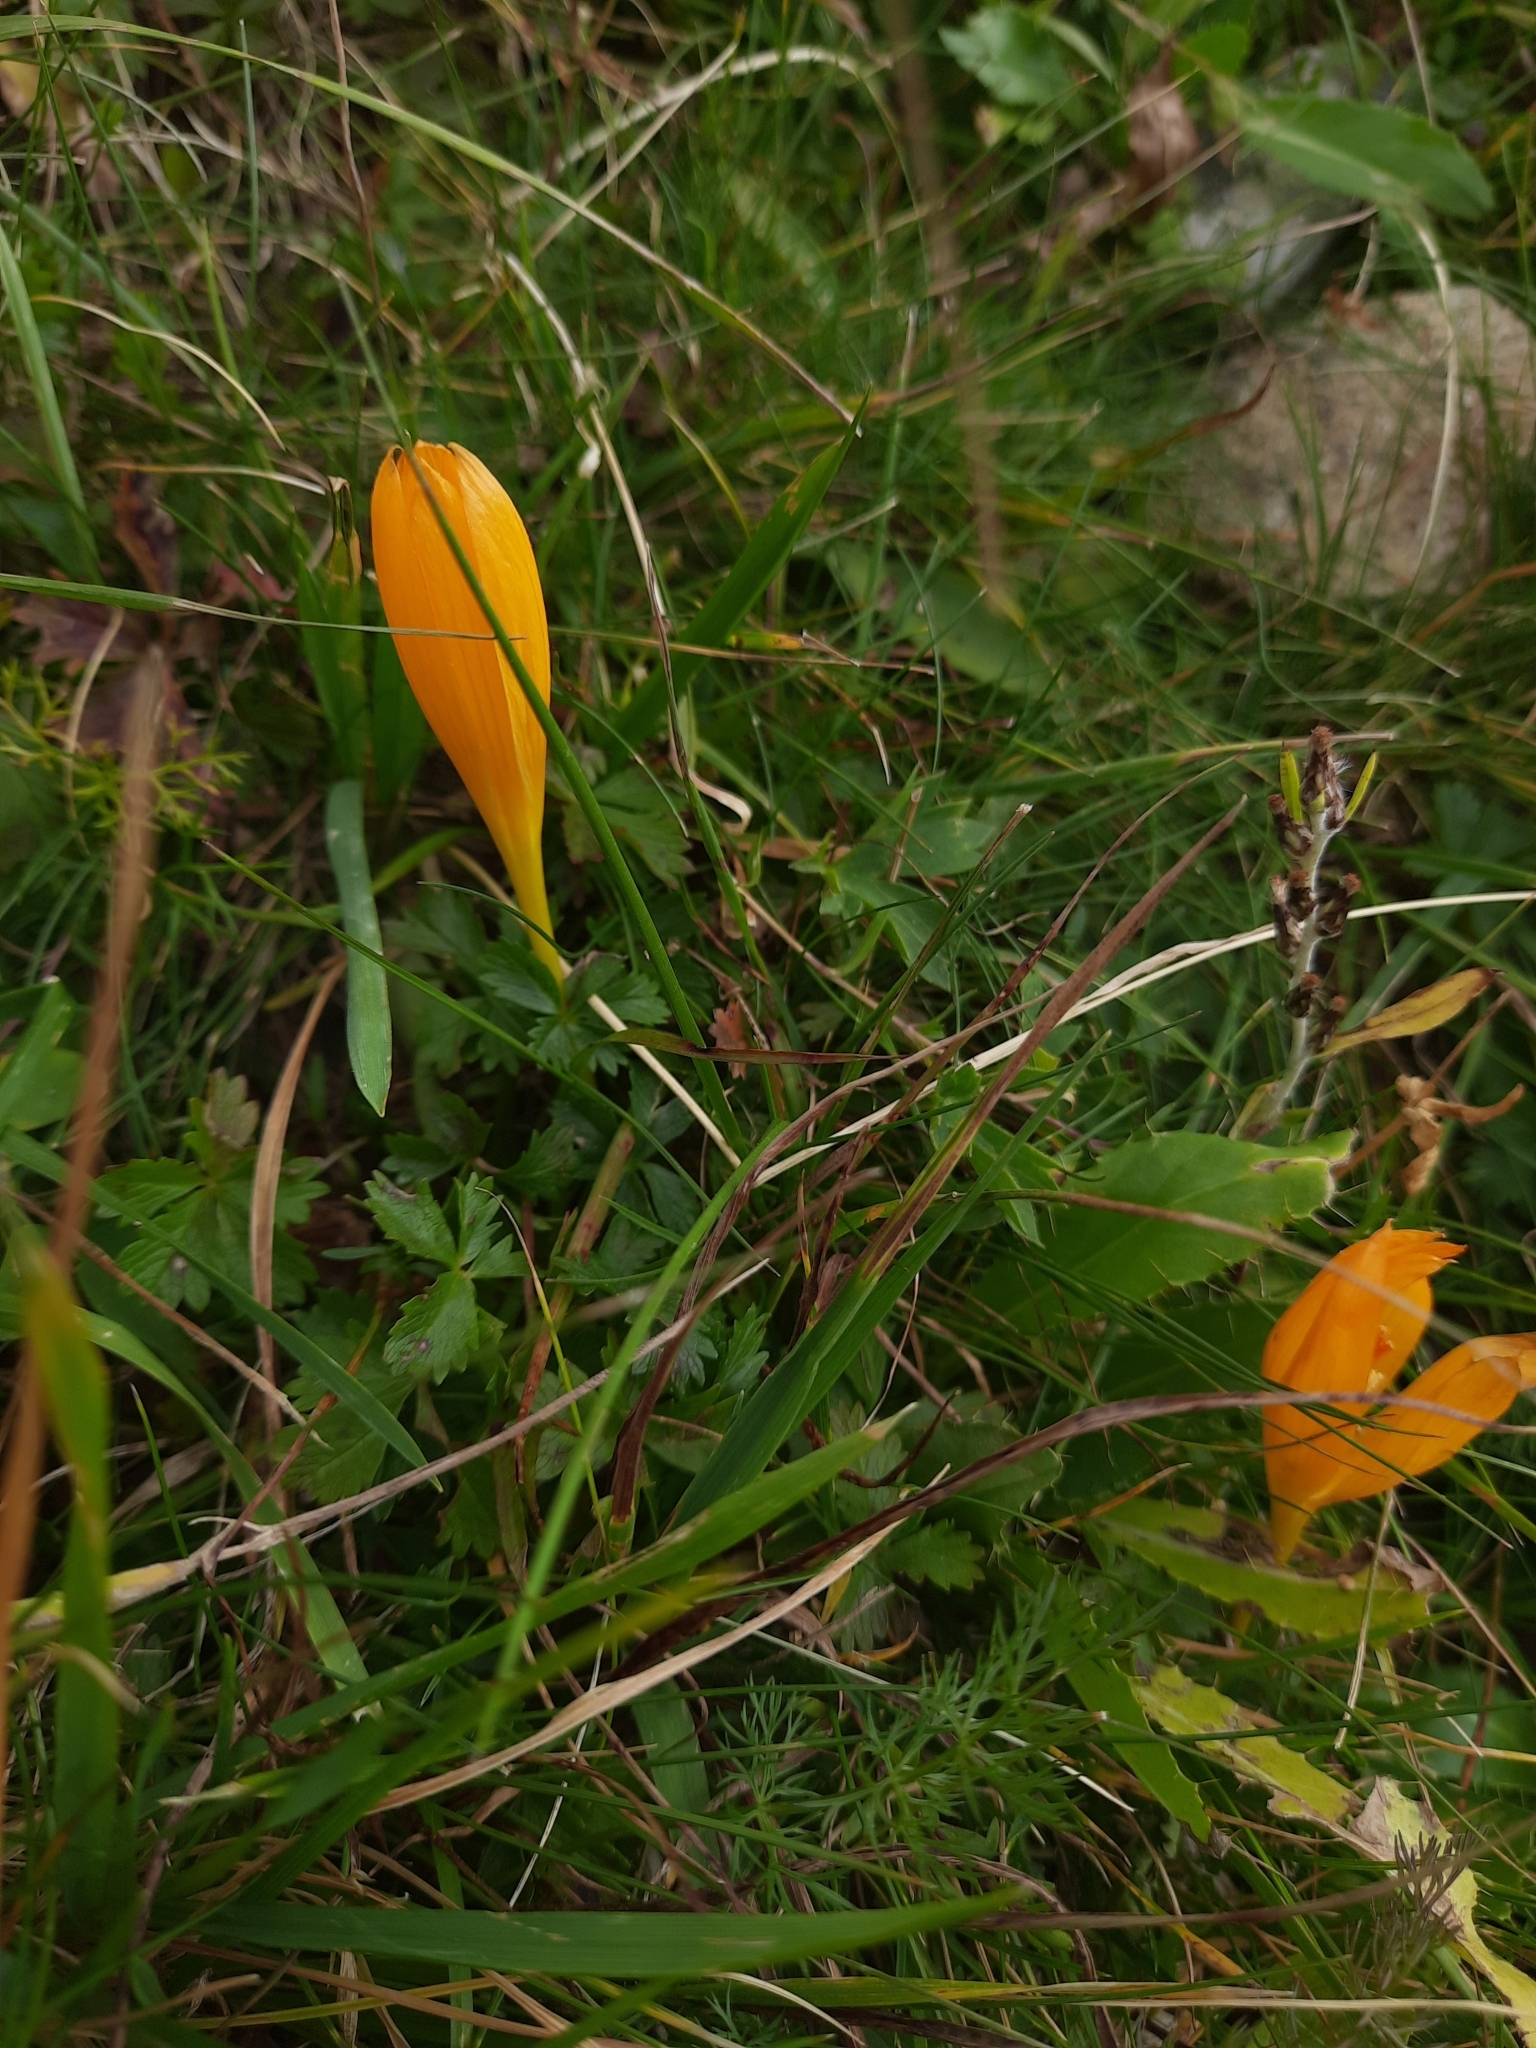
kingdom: Plantae
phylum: Tracheophyta
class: Liliopsida
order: Asparagales
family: Iridaceae
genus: Crocus
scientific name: Crocus scharojanii
